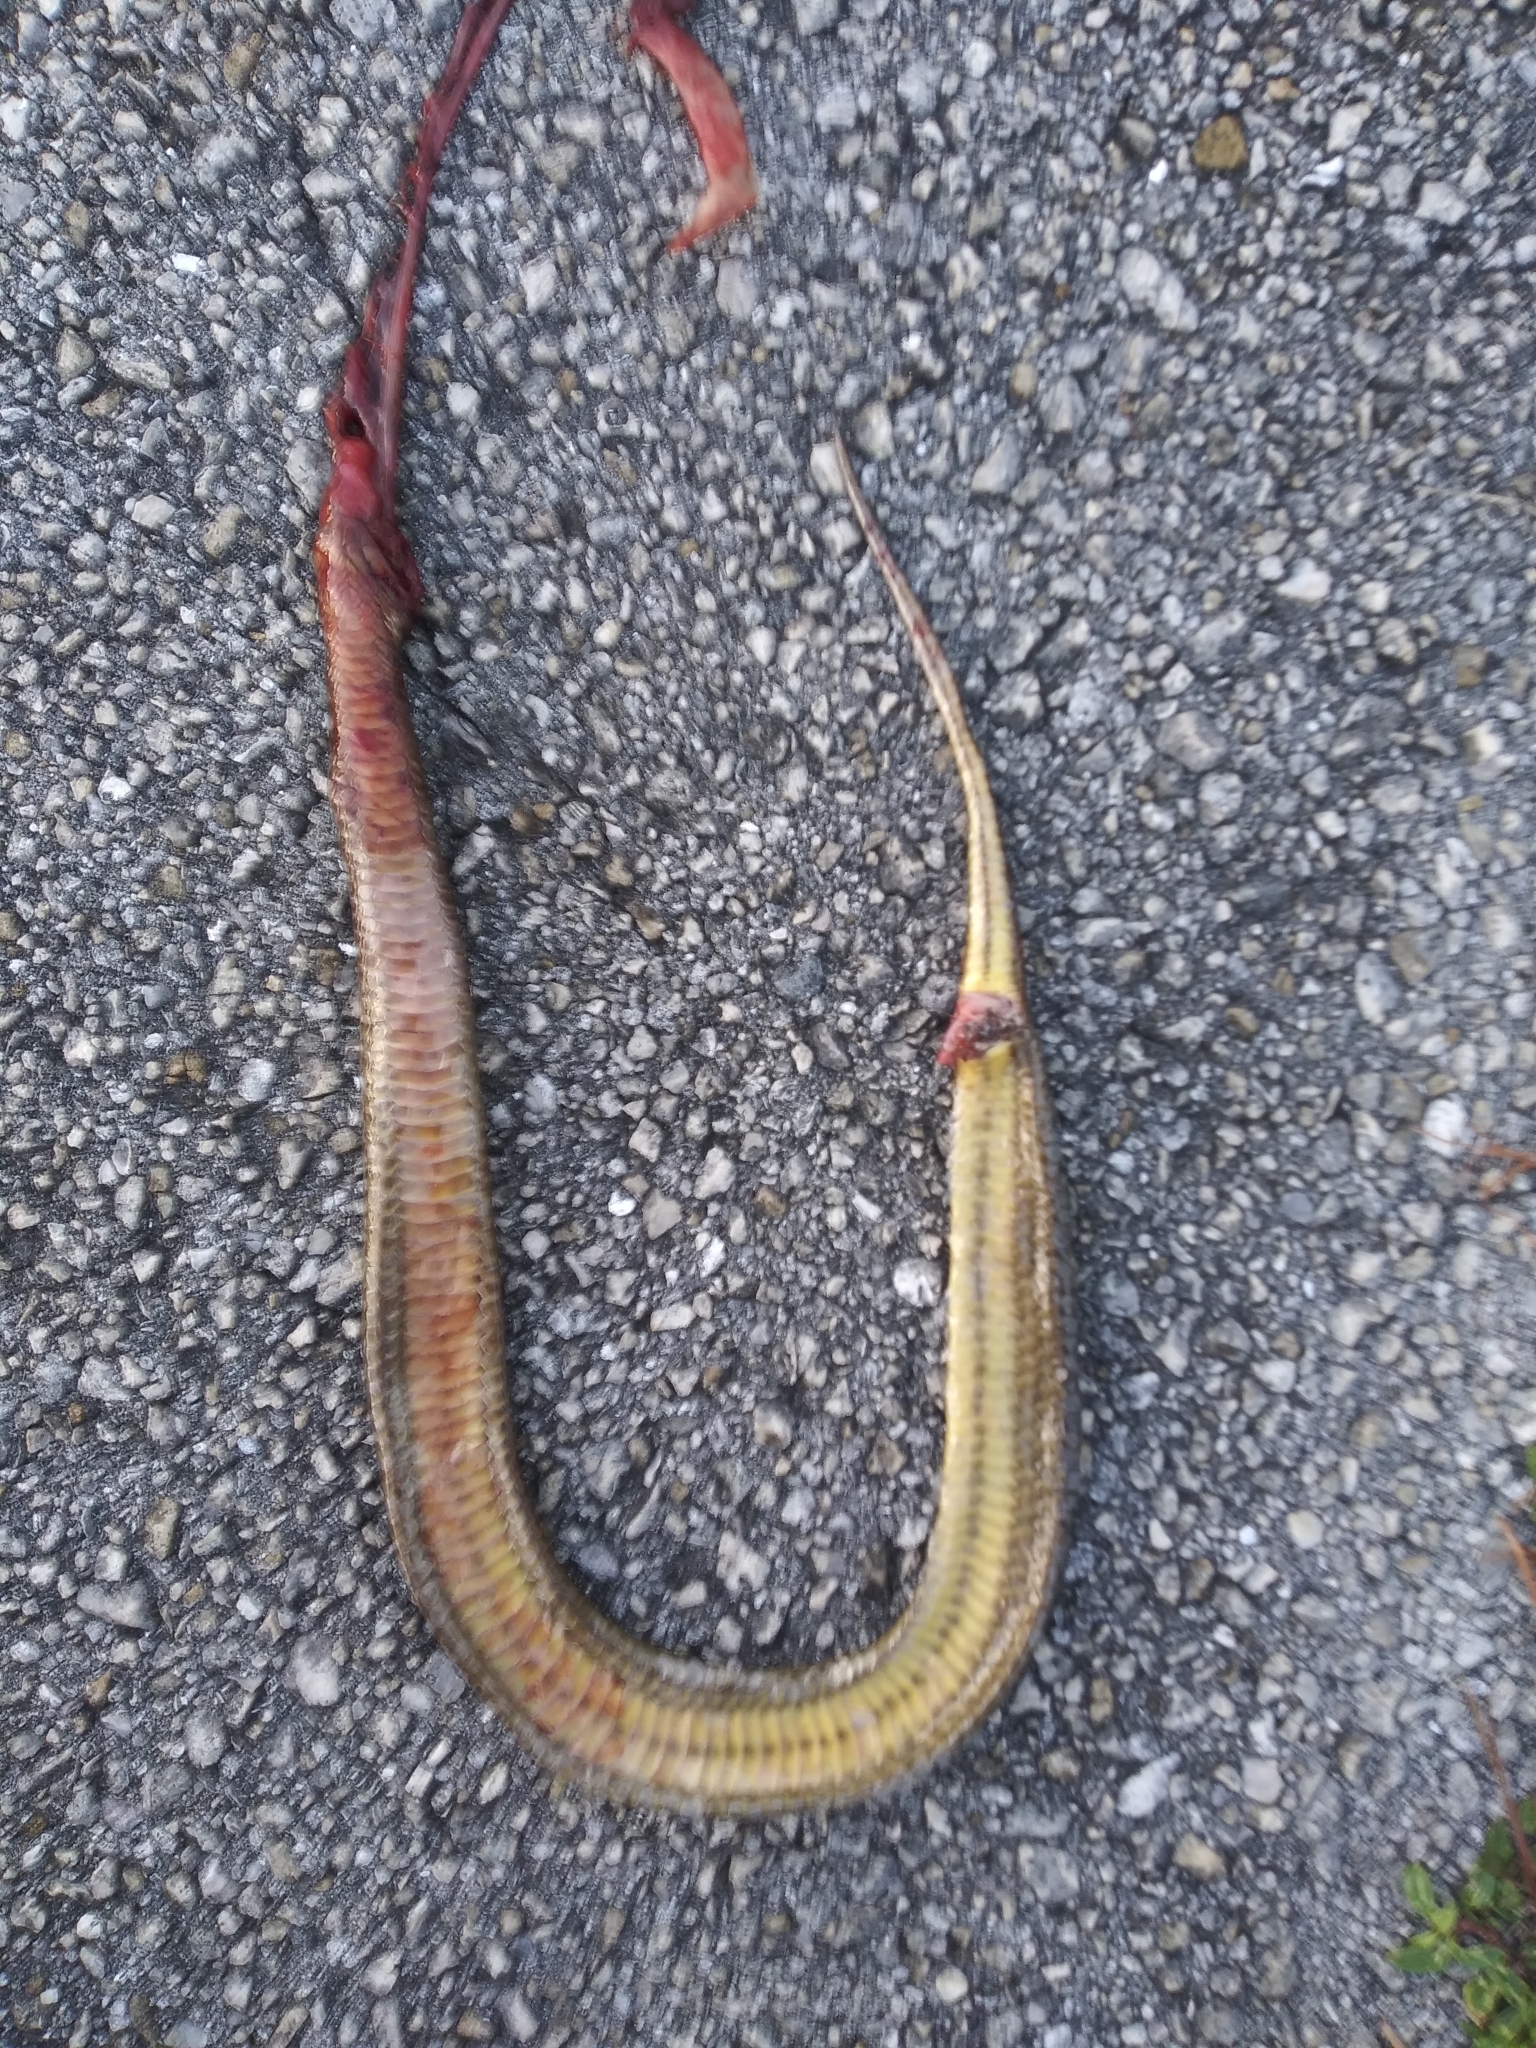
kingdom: Animalia
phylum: Chordata
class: Squamata
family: Colubridae
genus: Liodytes
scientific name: Liodytes alleni
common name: Striped crayfish snake
